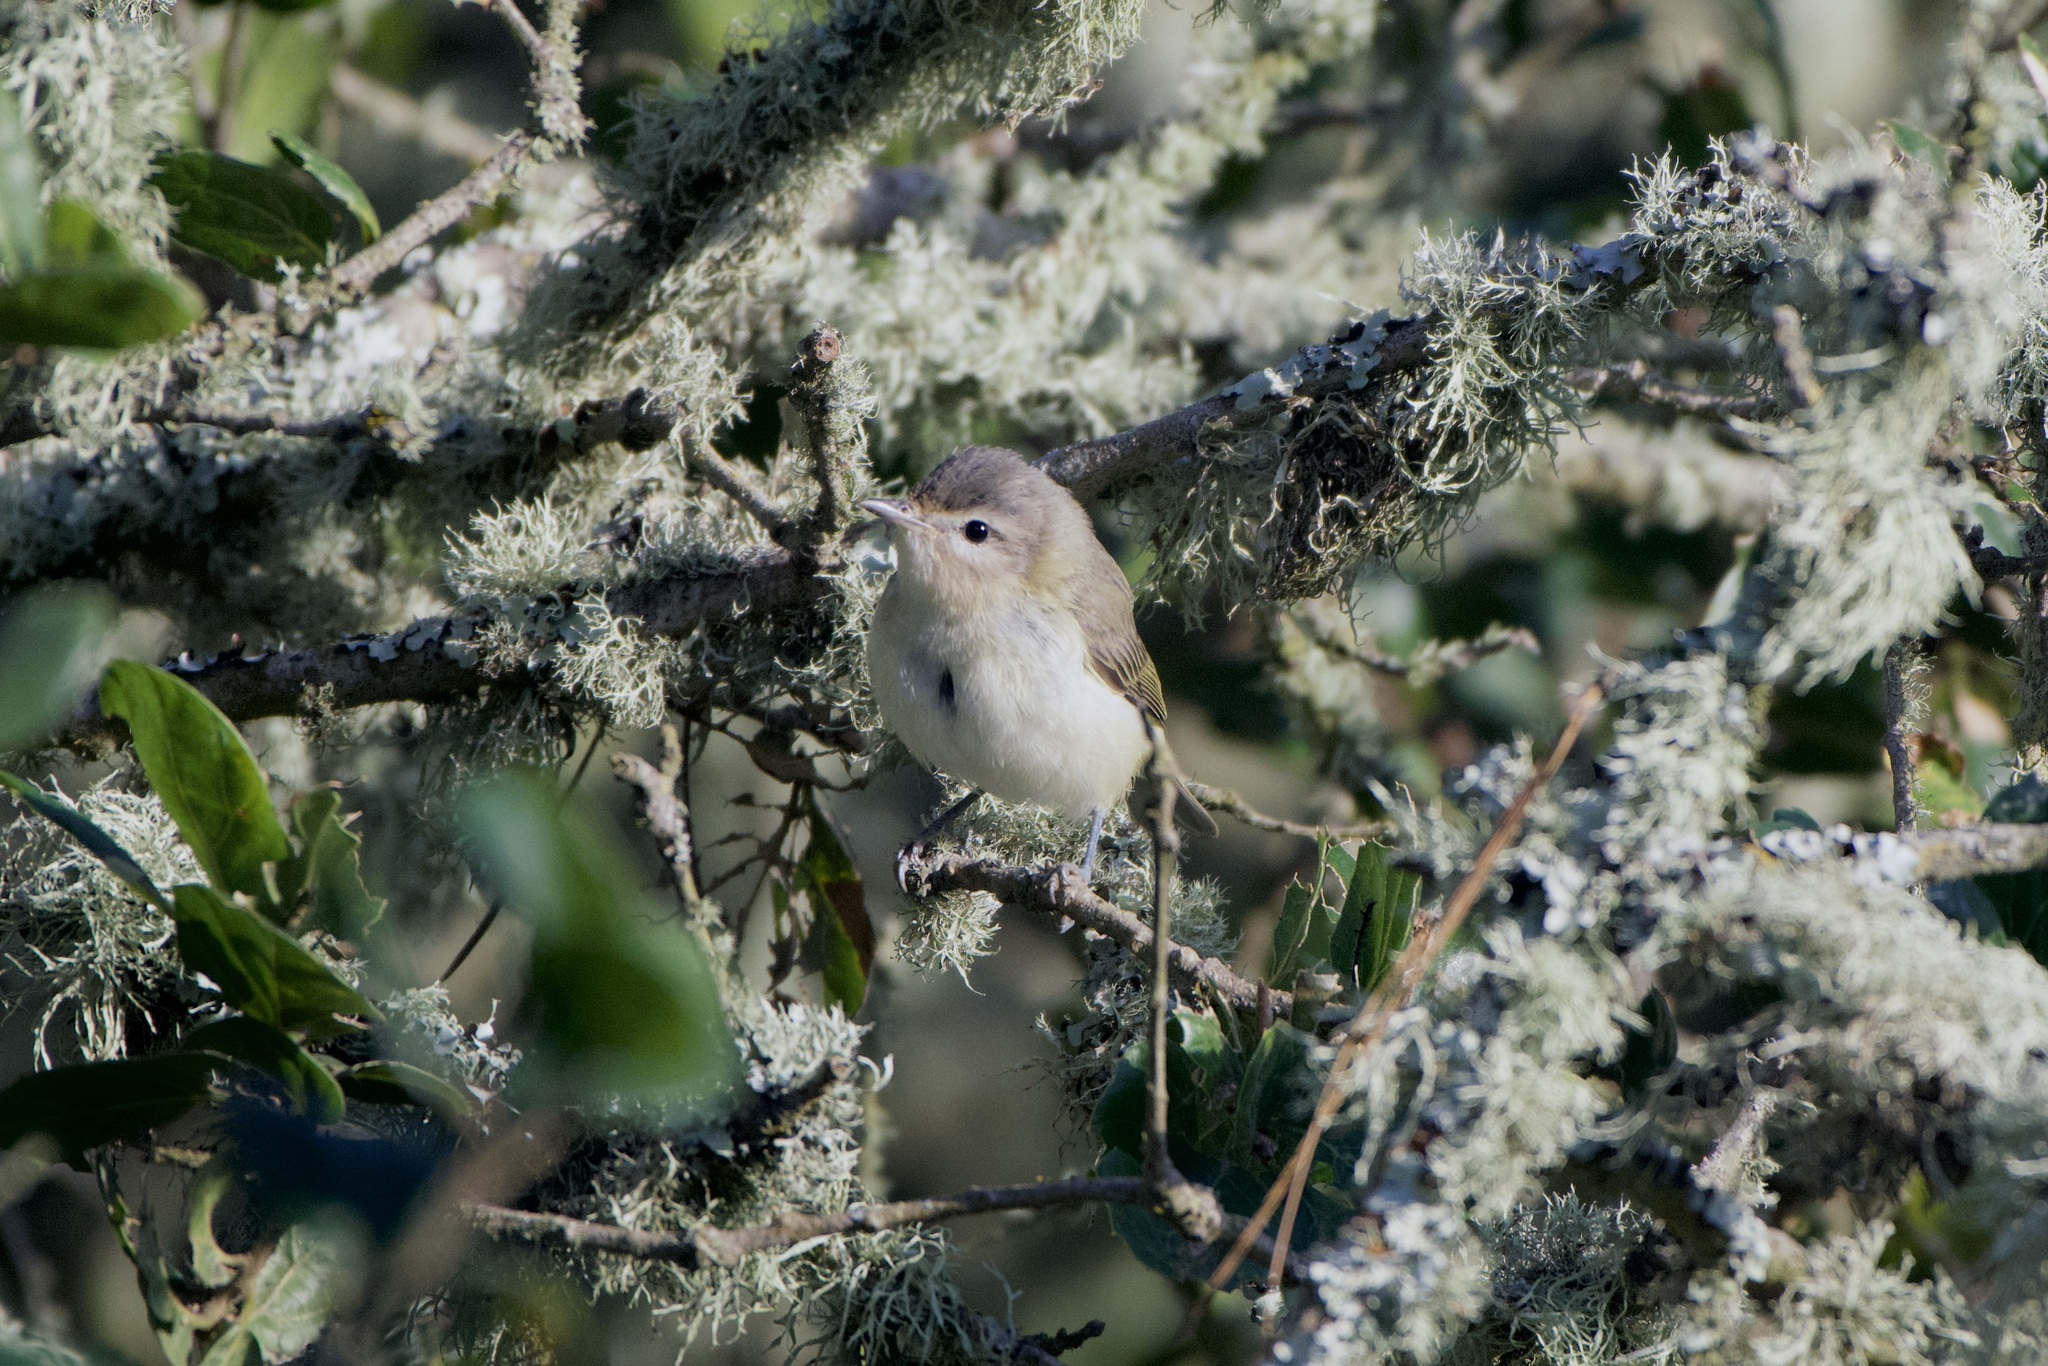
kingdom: Animalia
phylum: Chordata
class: Aves
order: Passeriformes
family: Vireonidae
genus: Vireo
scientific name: Vireo gilvus
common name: Warbling vireo
